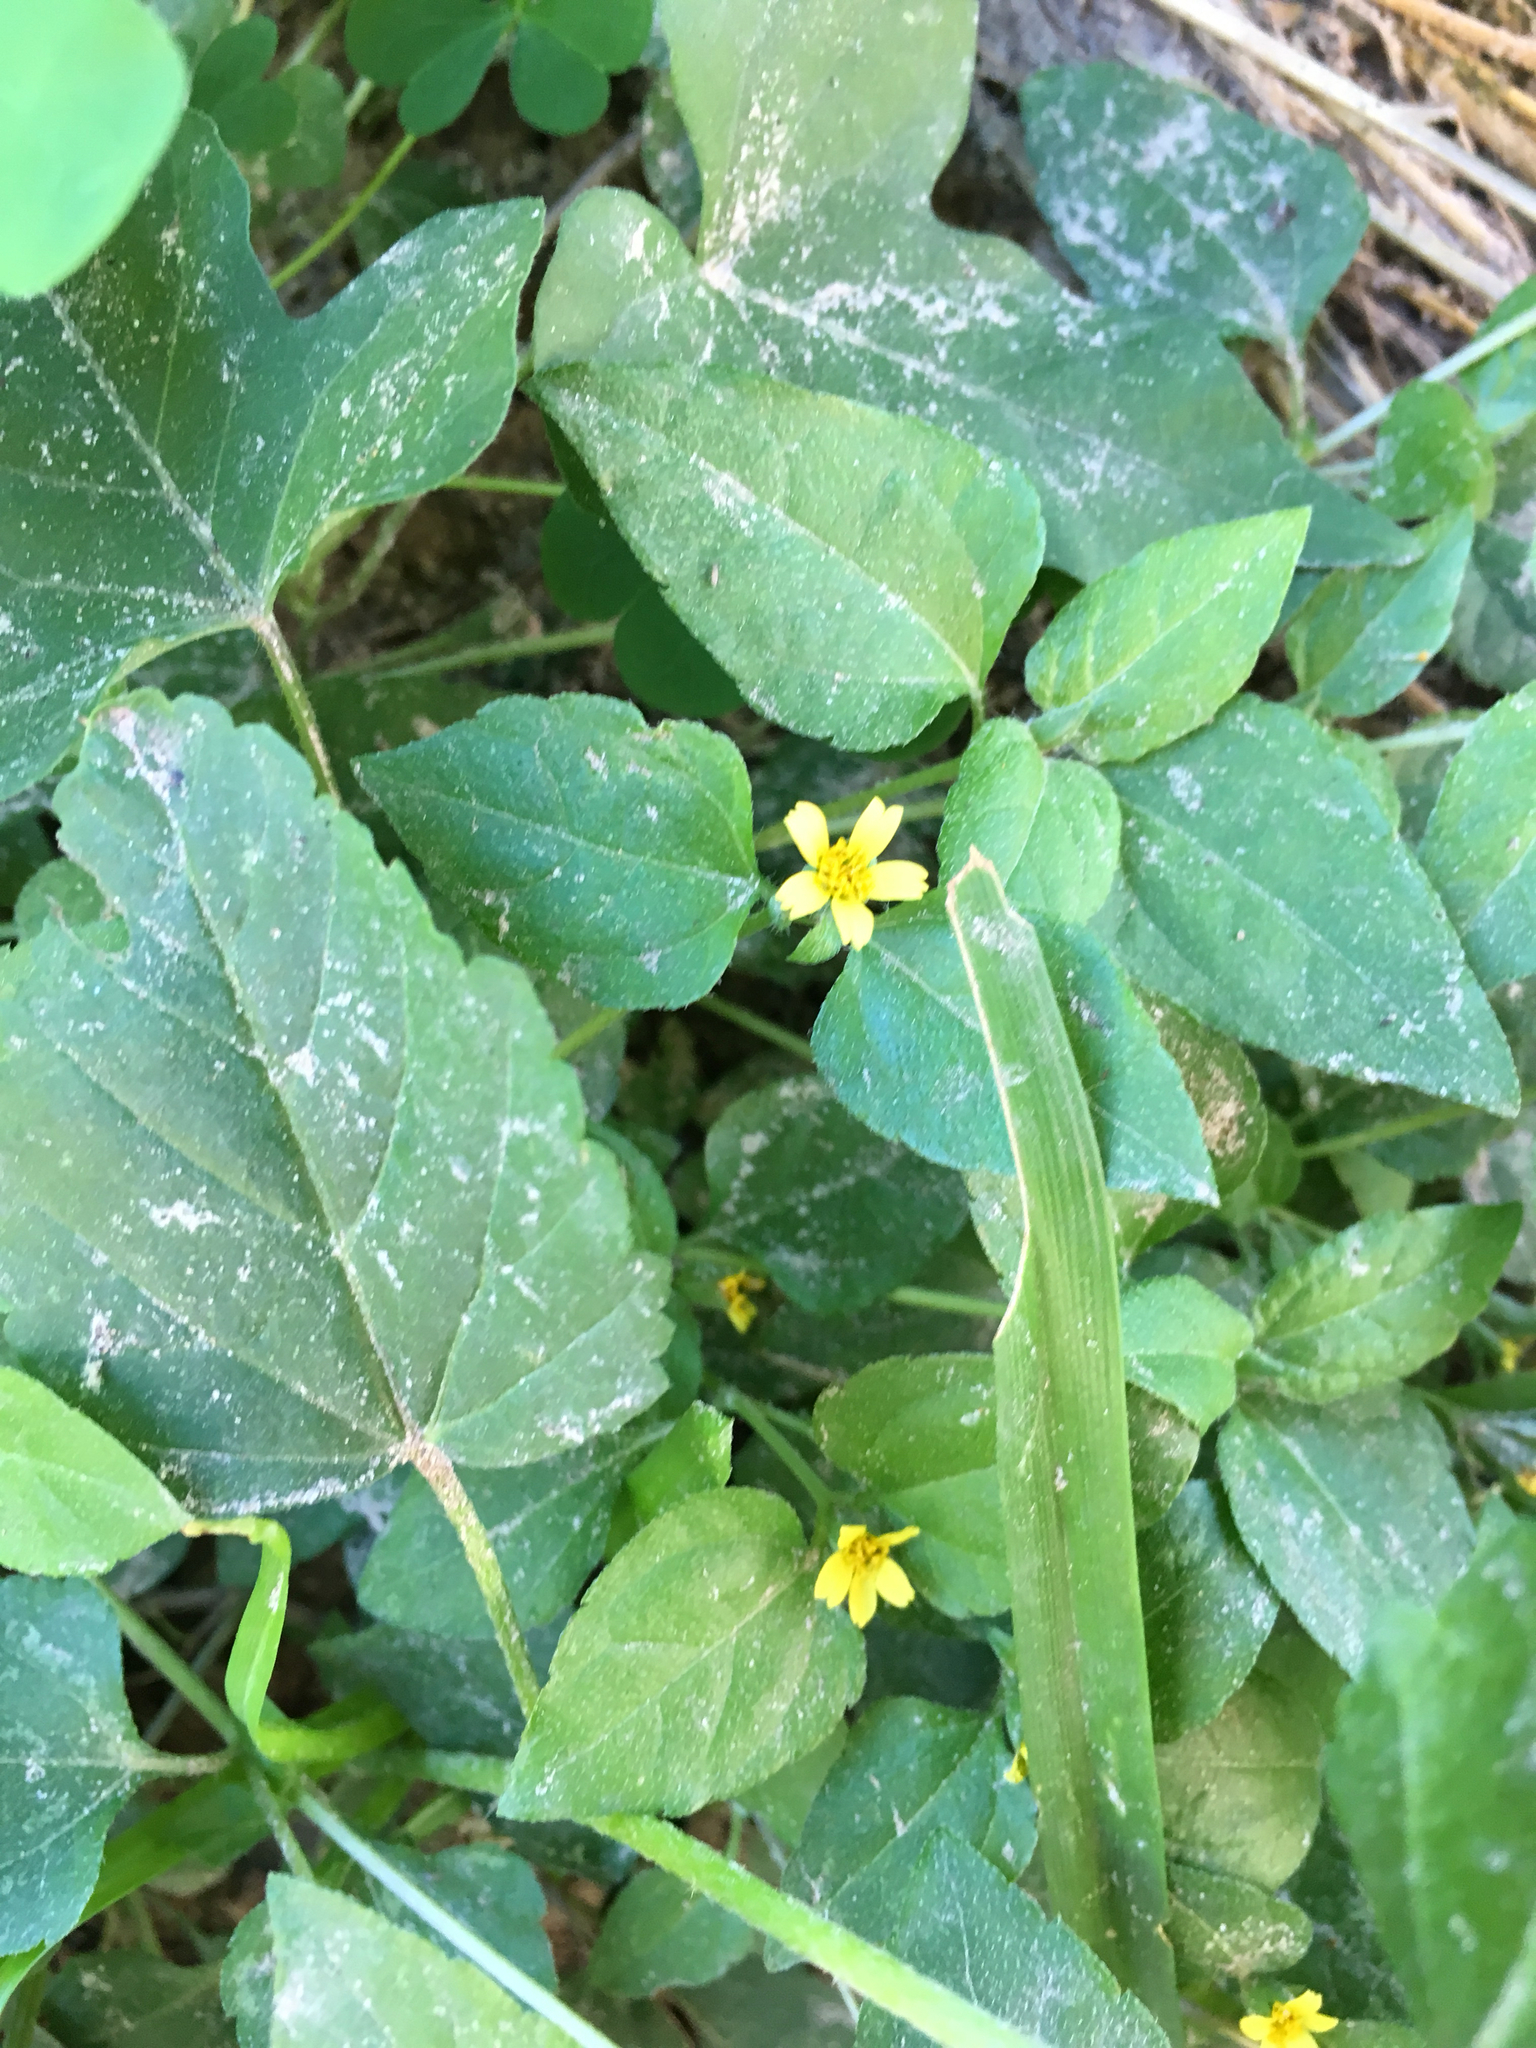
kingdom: Plantae
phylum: Tracheophyta
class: Magnoliopsida
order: Asterales
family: Asteraceae
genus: Calyptocarpus
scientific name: Calyptocarpus vialis
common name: Straggler daisy
